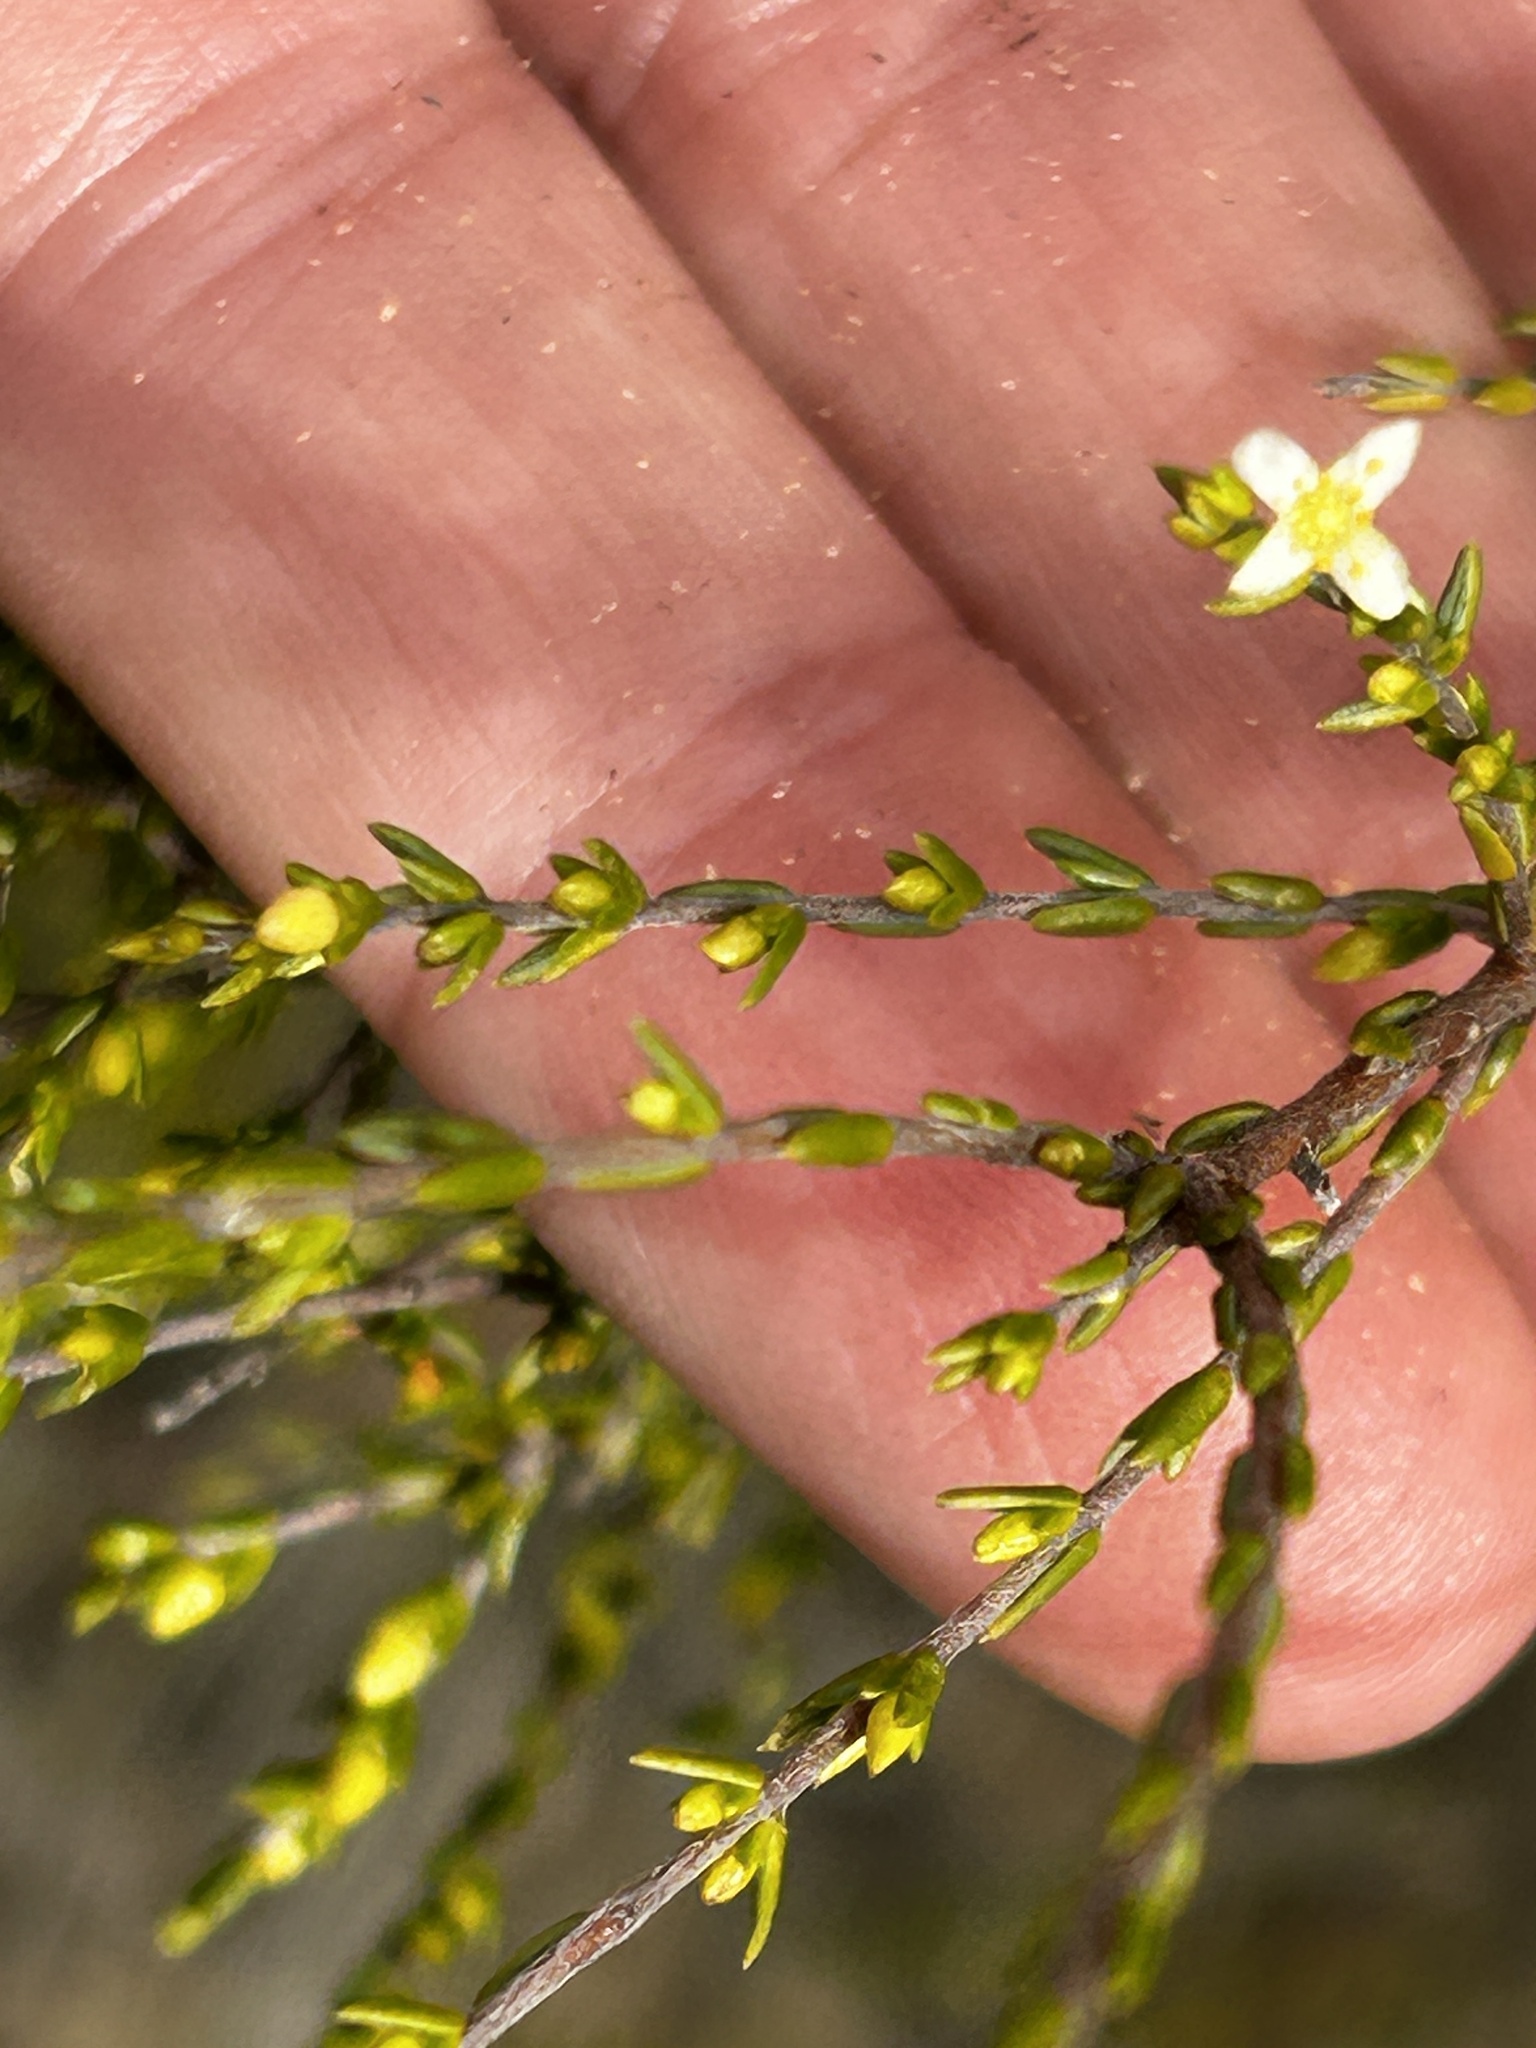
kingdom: Plantae
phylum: Tracheophyta
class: Magnoliopsida
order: Malvales
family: Thymelaeaceae
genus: Lachnaea
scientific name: Lachnaea axillaris
